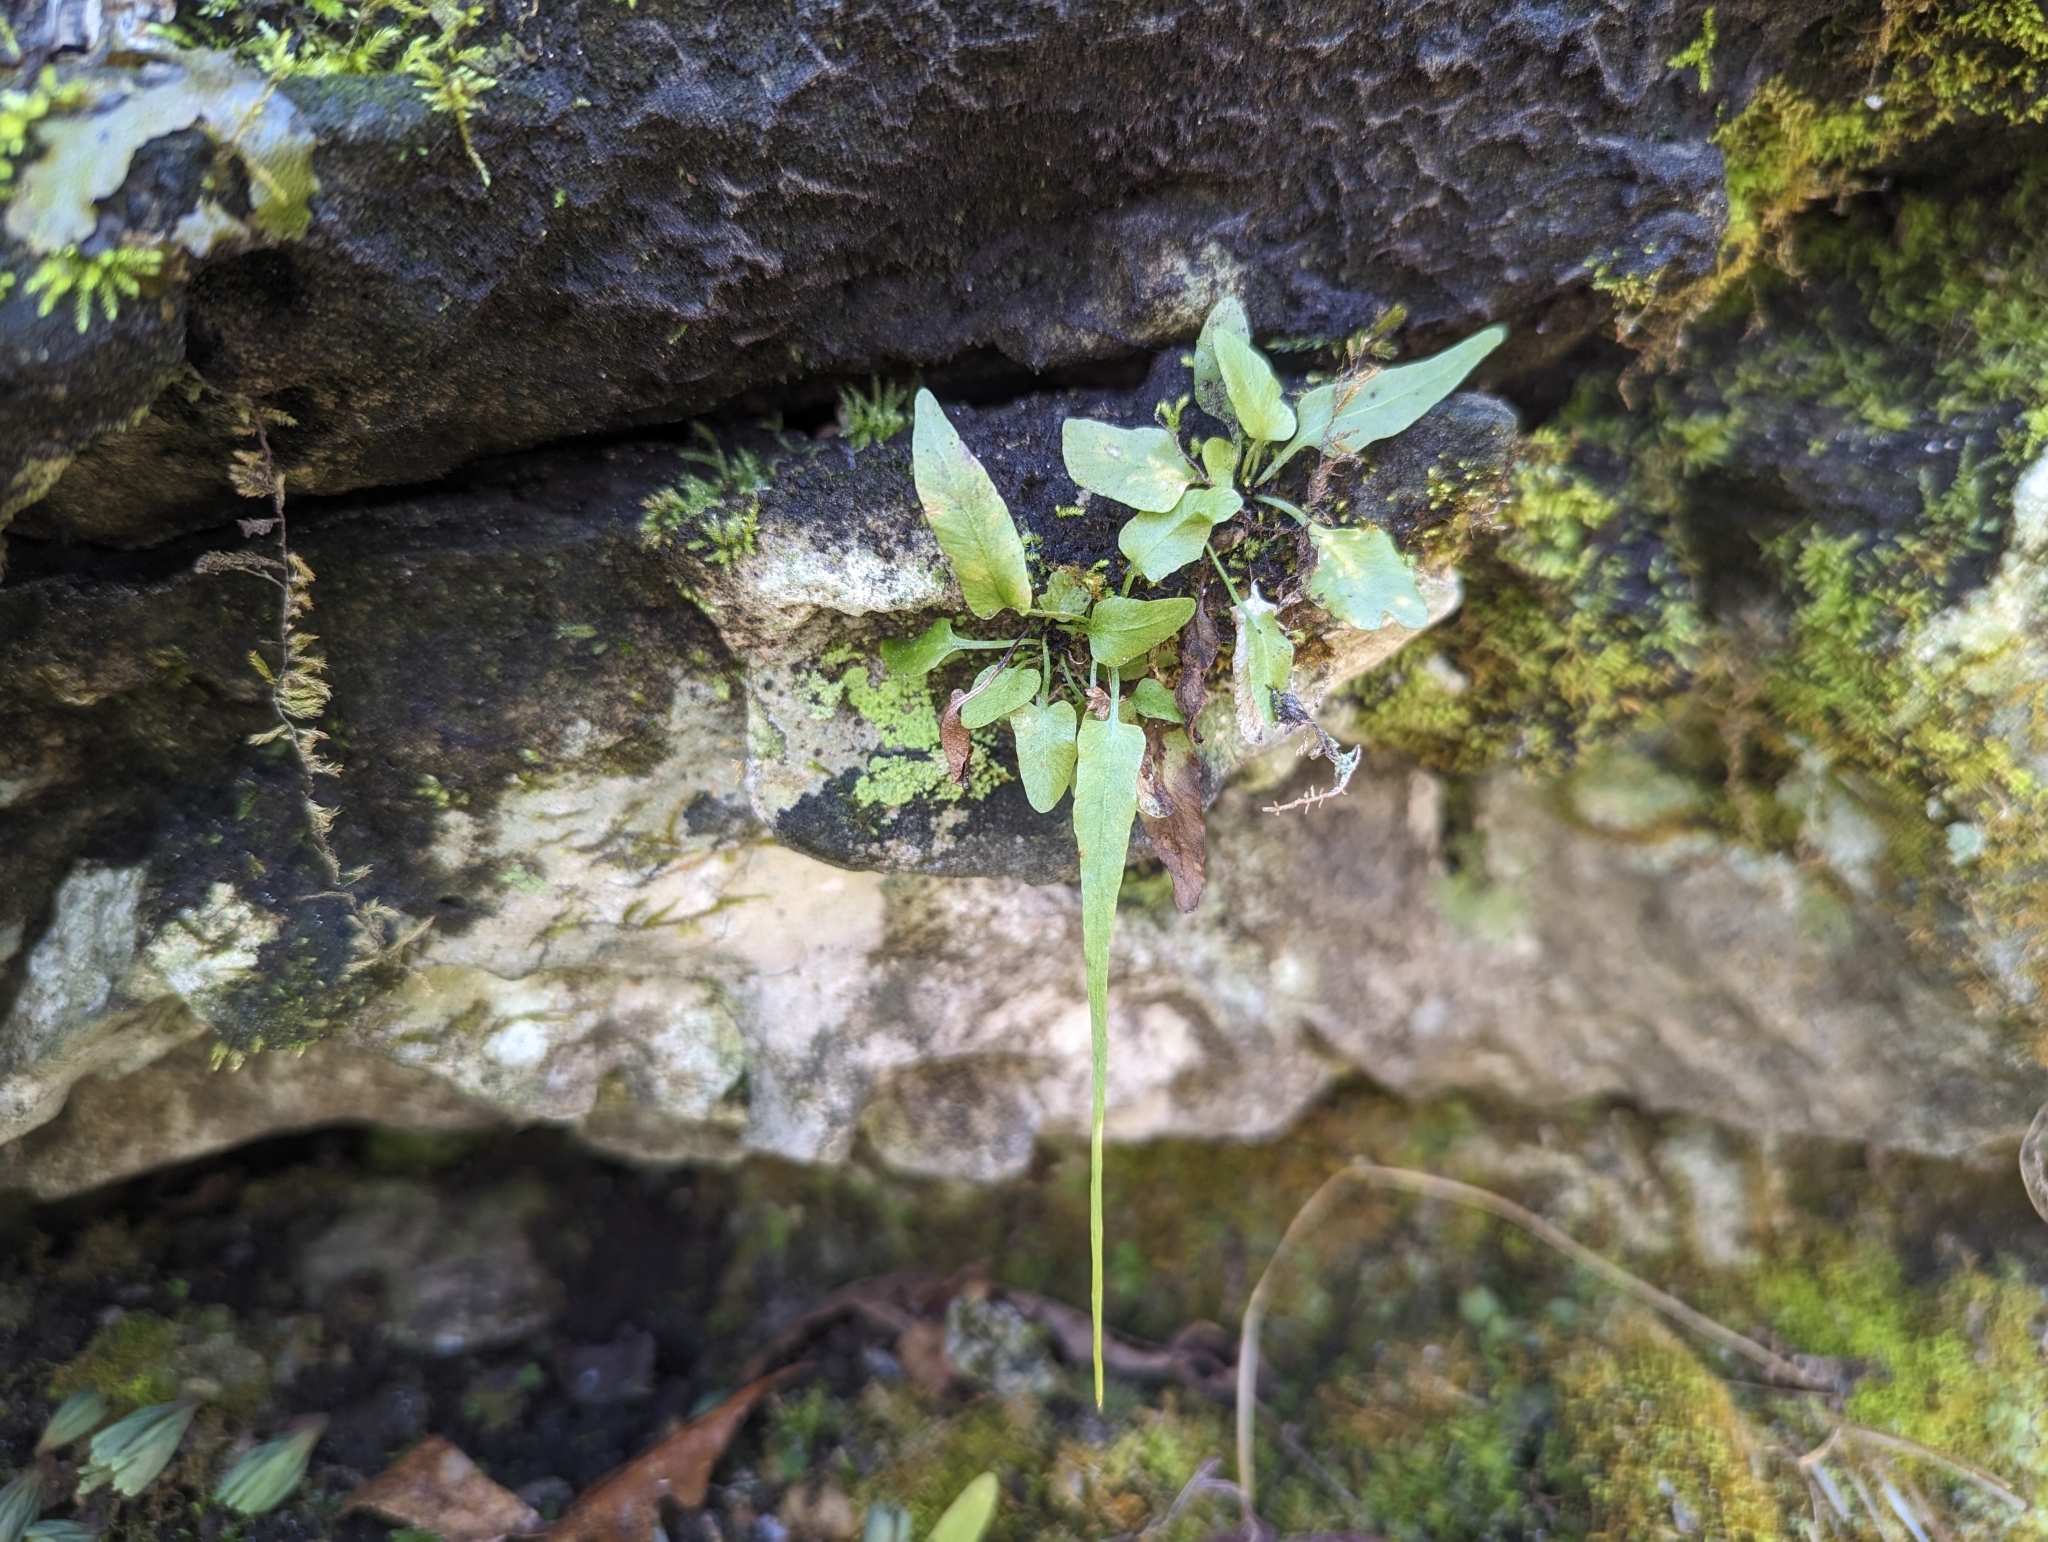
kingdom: Plantae
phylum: Tracheophyta
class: Polypodiopsida
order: Polypodiales
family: Aspleniaceae
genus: Asplenium
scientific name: Asplenium rhizophyllum
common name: Walking fern
